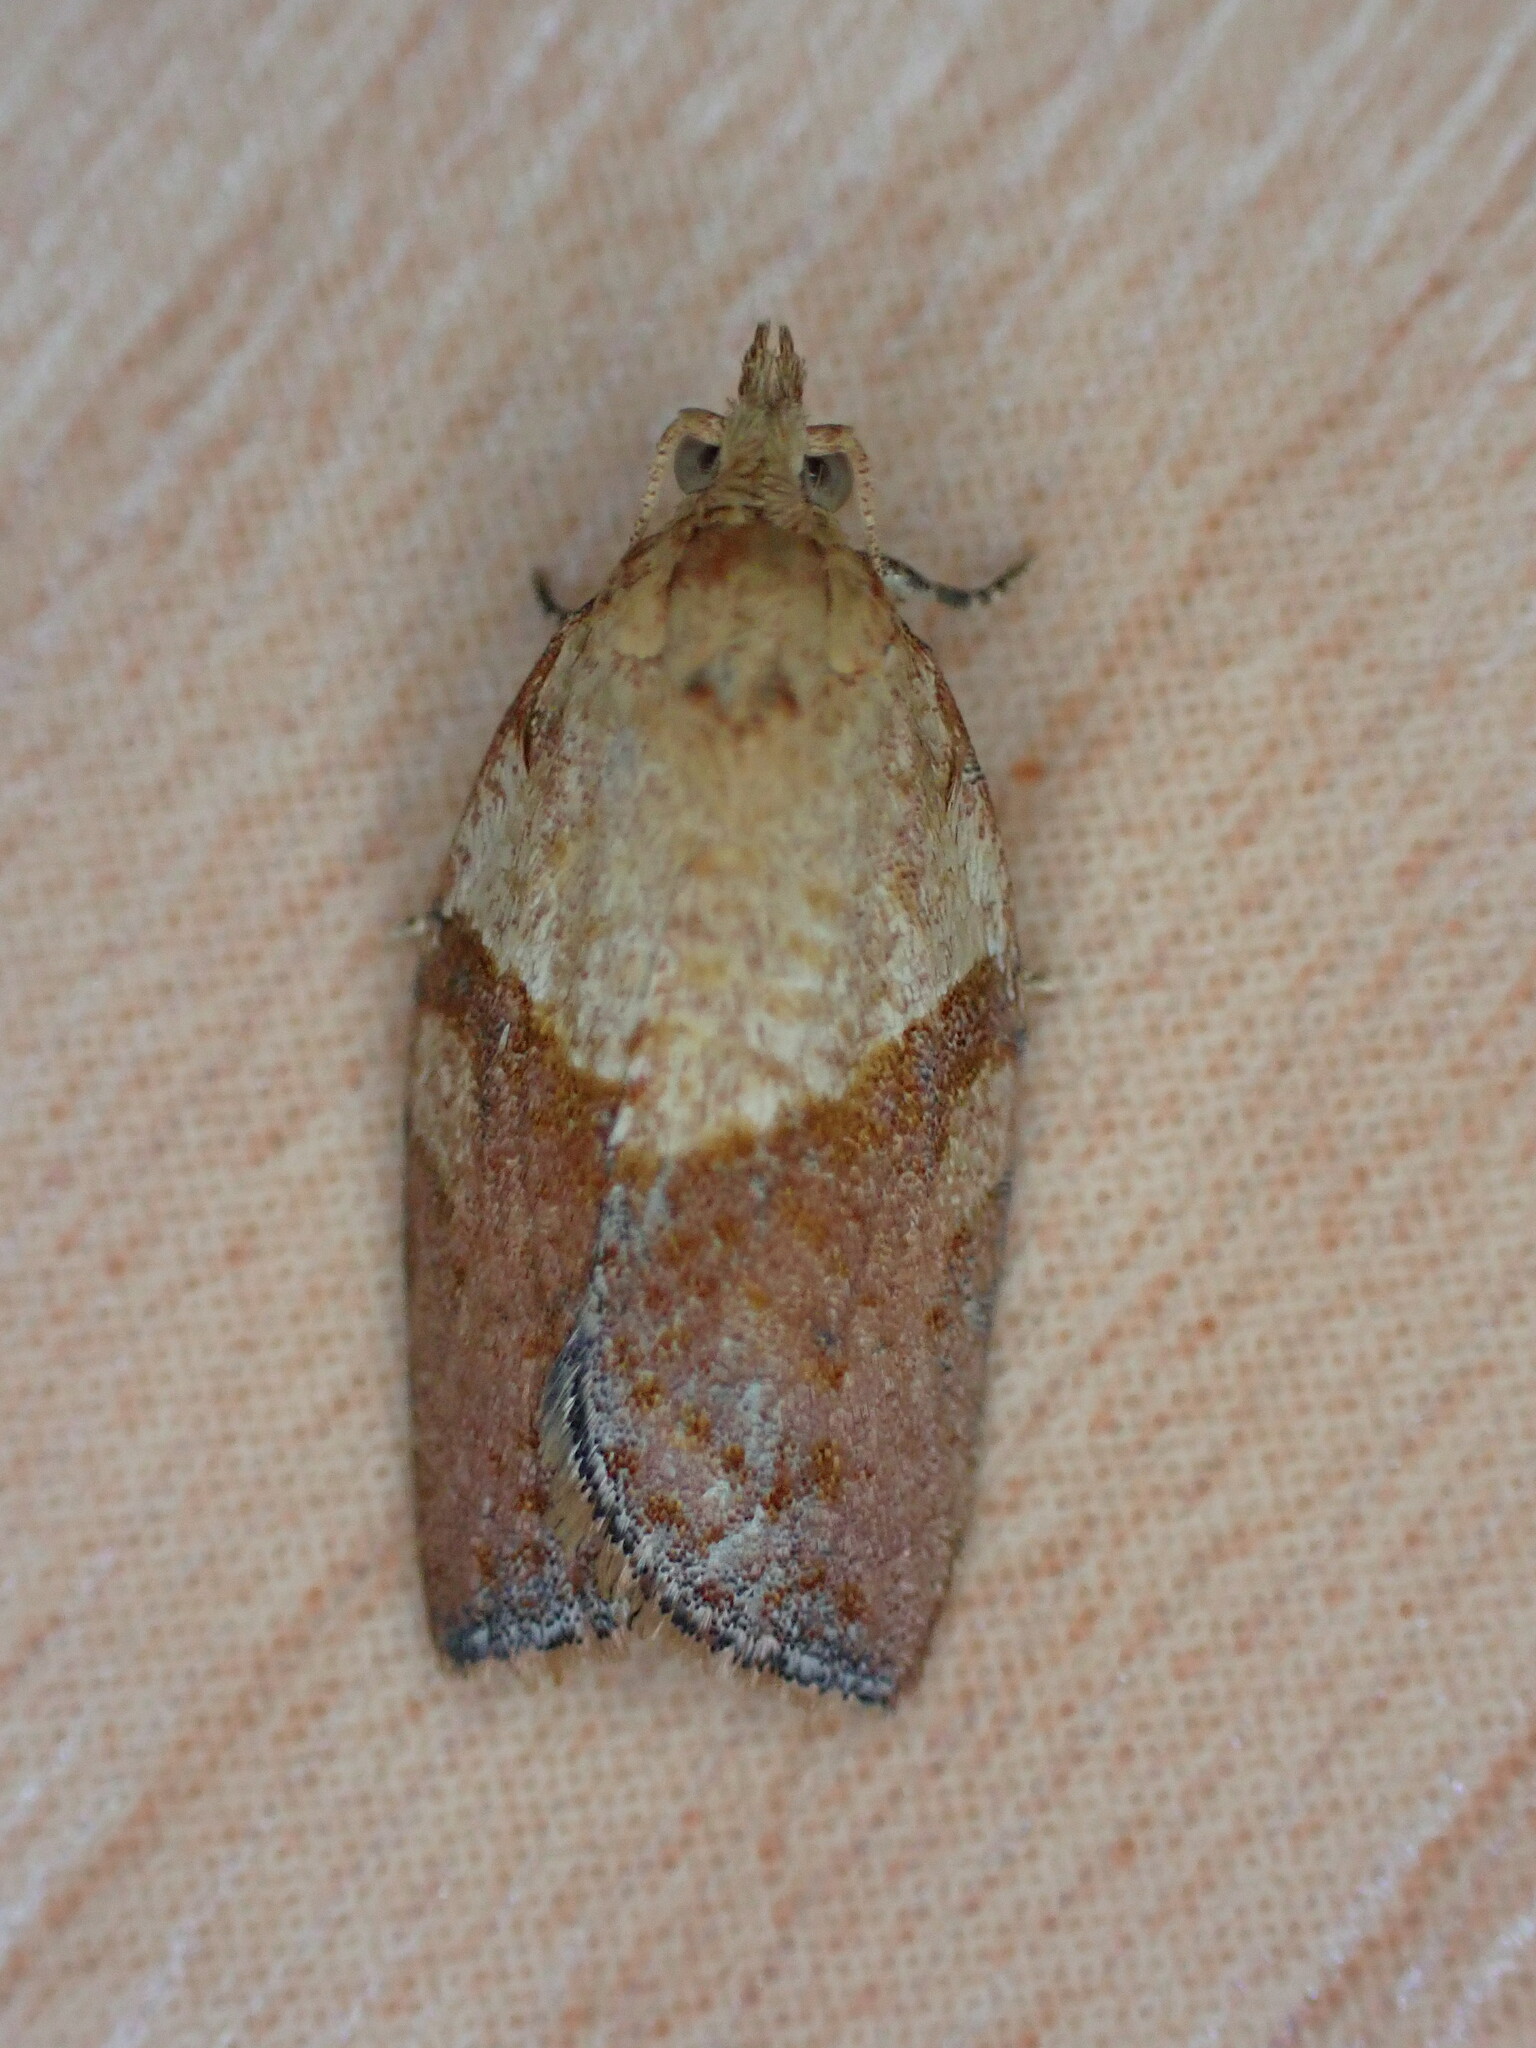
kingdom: Animalia
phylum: Arthropoda
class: Insecta
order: Lepidoptera
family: Tortricidae
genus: Epiphyas
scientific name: Epiphyas postvittana
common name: Light brown apple moth
